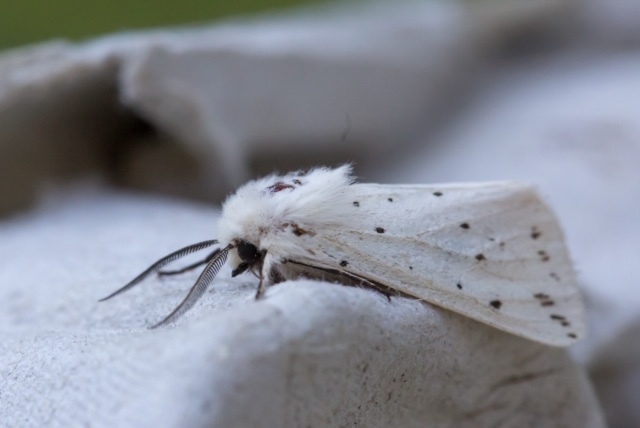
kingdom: Animalia
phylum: Arthropoda
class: Insecta
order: Lepidoptera
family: Erebidae
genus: Spilosoma
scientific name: Spilosoma lubricipeda
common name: White ermine
